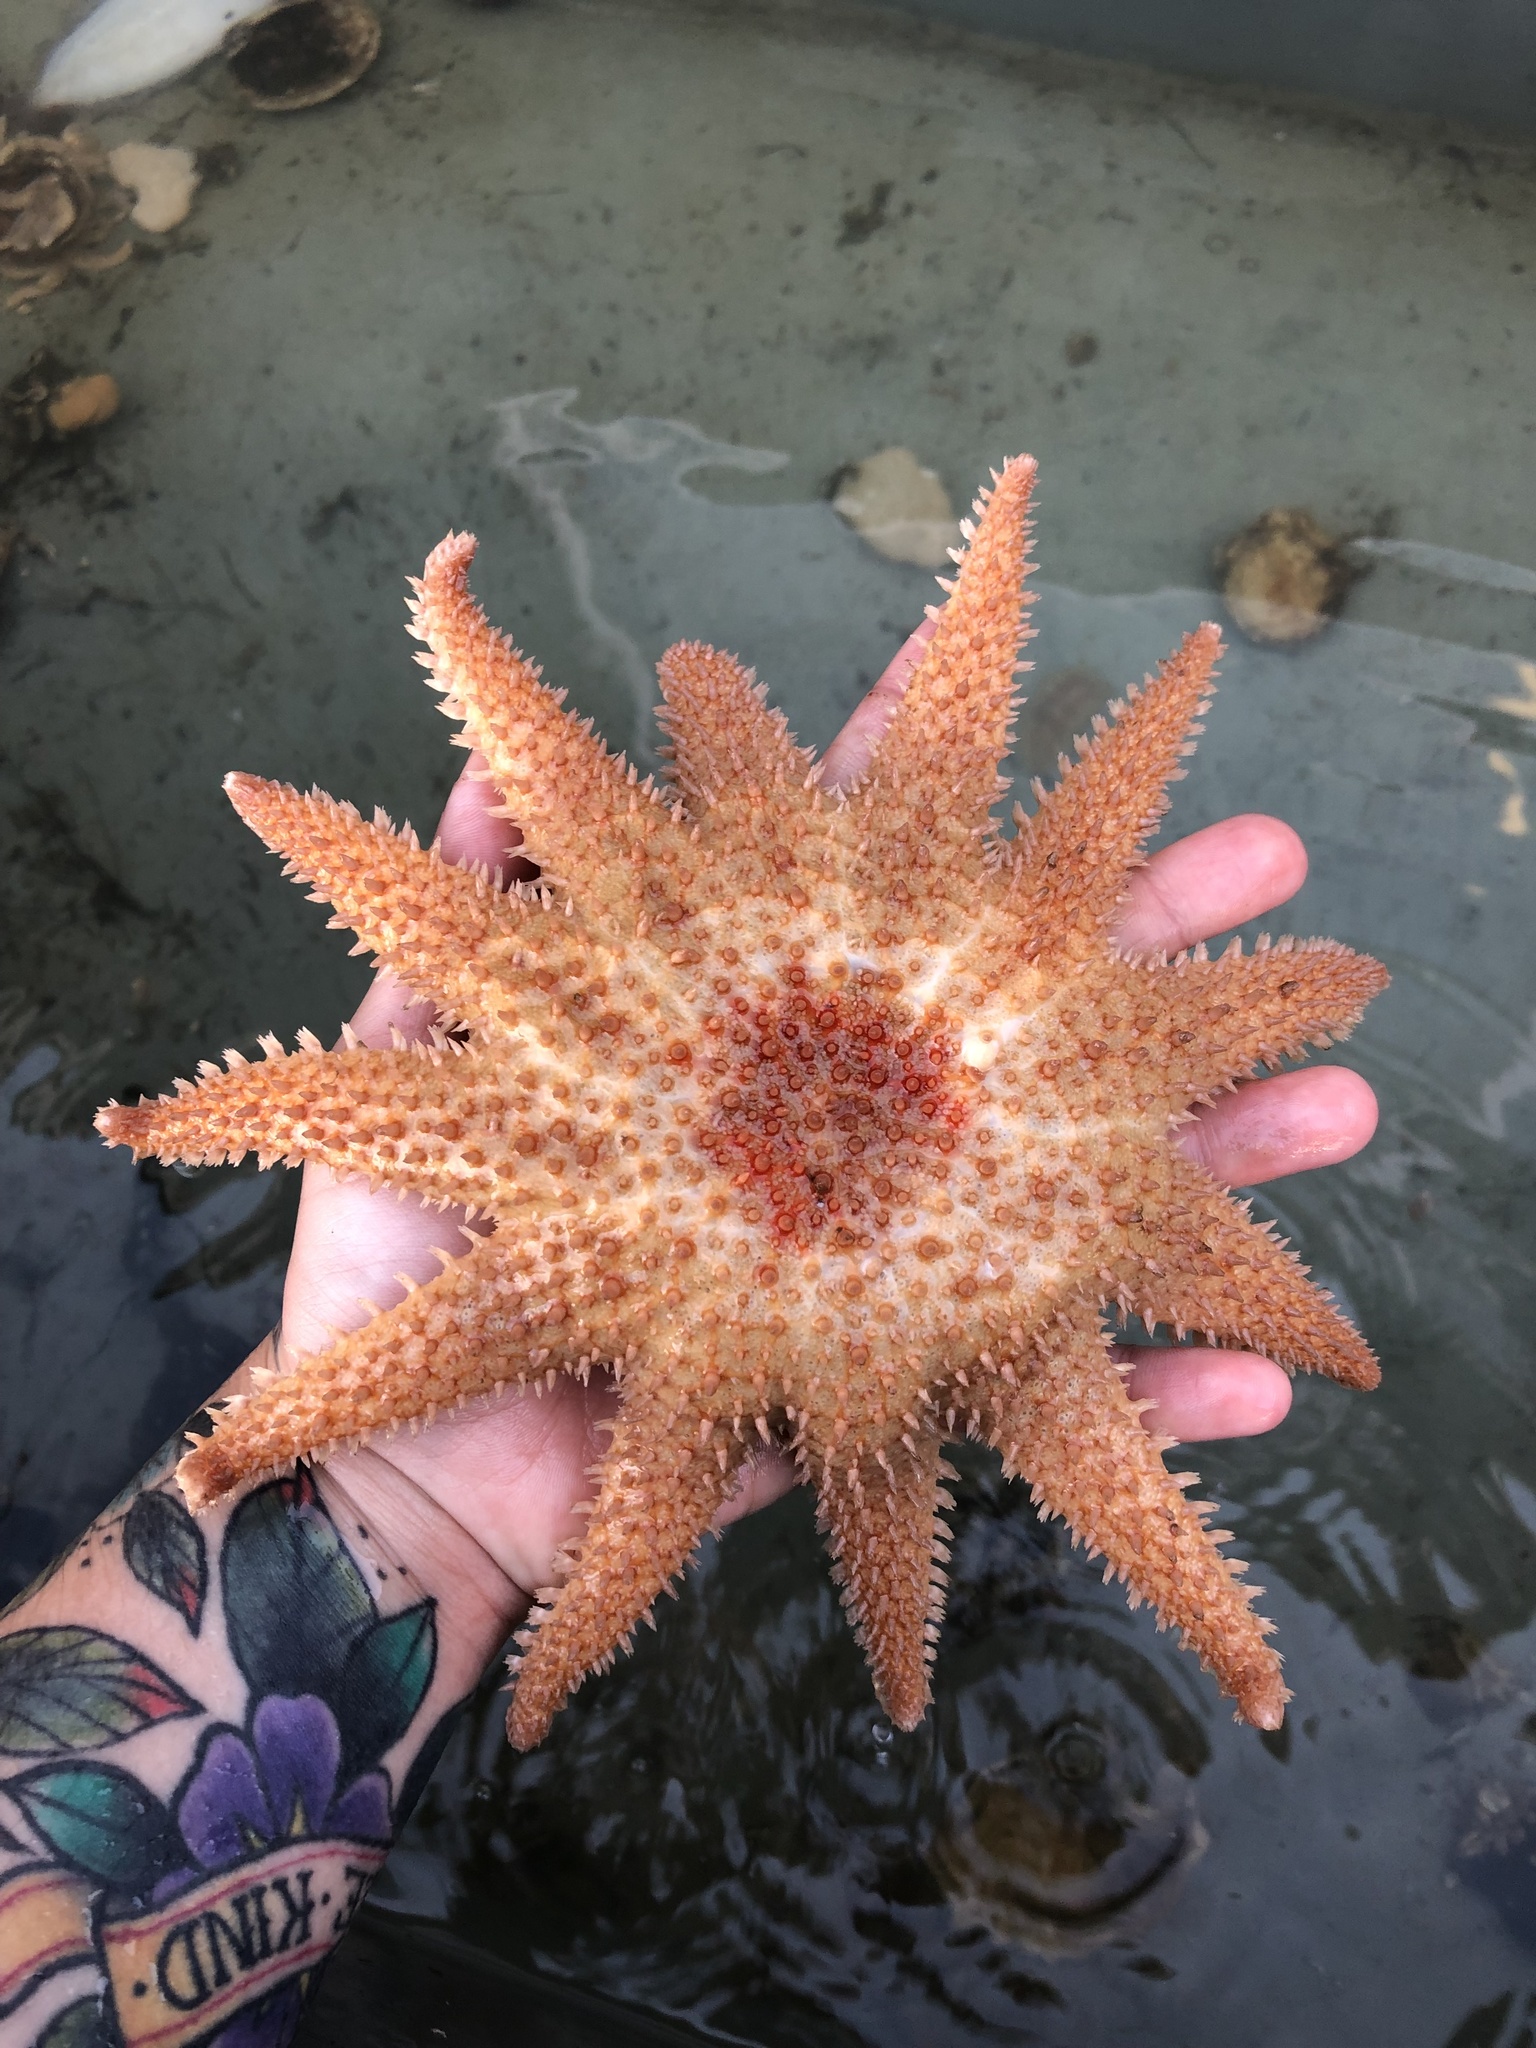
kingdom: Animalia
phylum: Echinodermata
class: Asteroidea
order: Valvatida
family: Solasteridae
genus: Crossaster
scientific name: Crossaster papposus
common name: Common sun star
